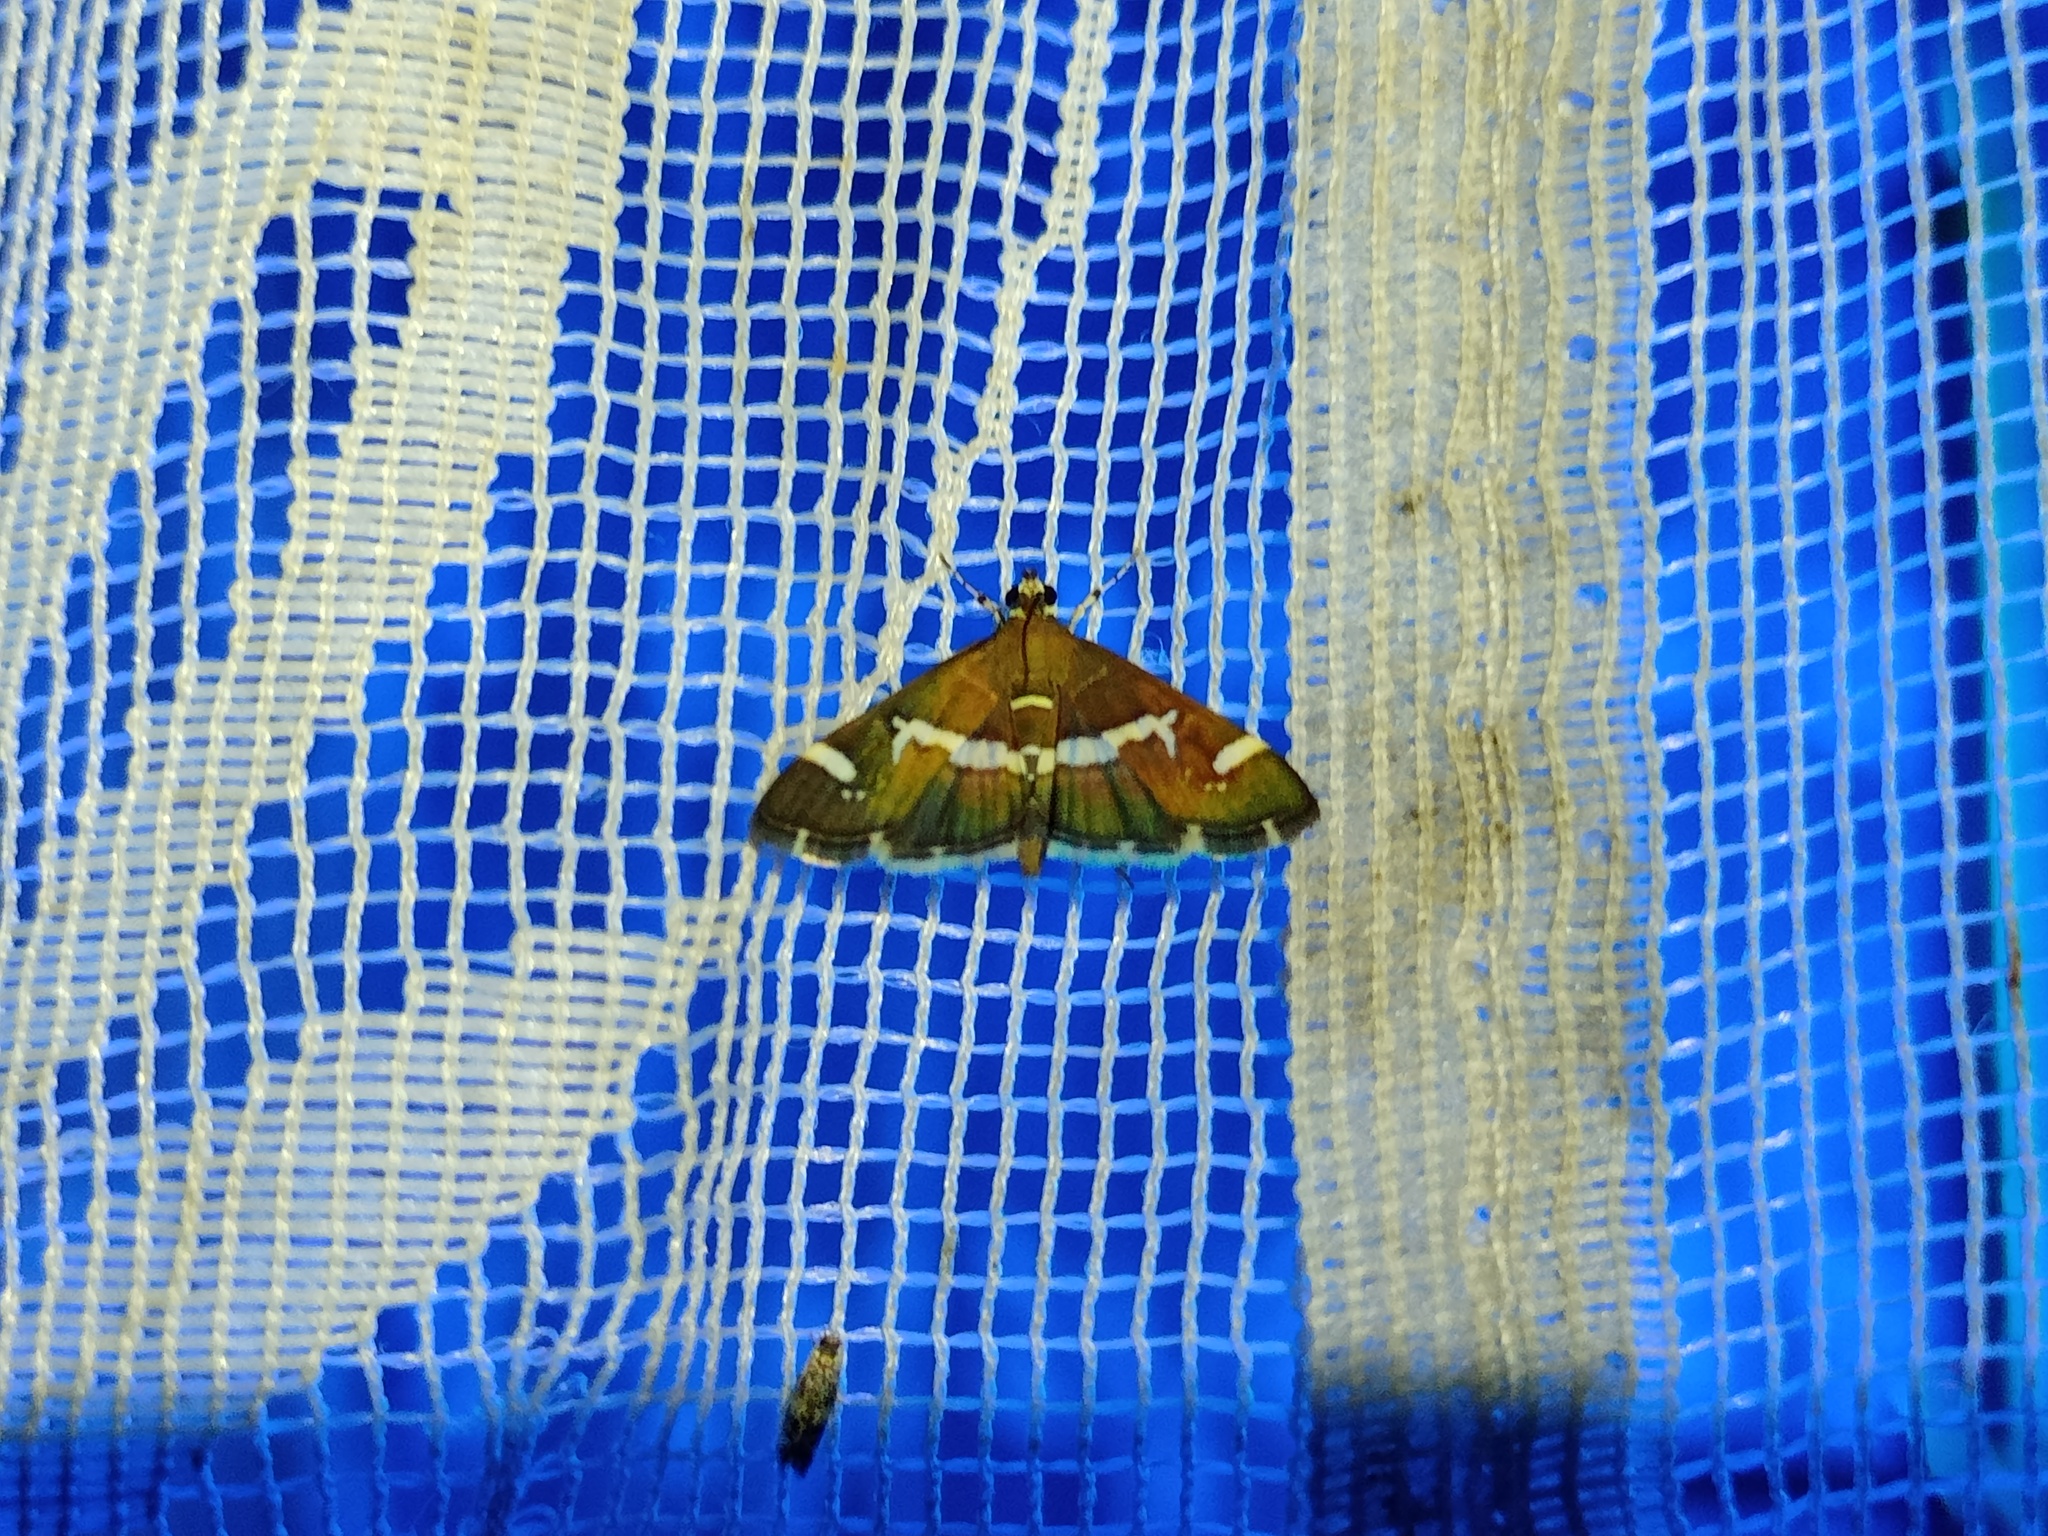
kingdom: Animalia
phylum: Arthropoda
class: Insecta
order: Lepidoptera
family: Crambidae
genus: Spoladea
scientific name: Spoladea recurvalis
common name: Beet webworm moth
